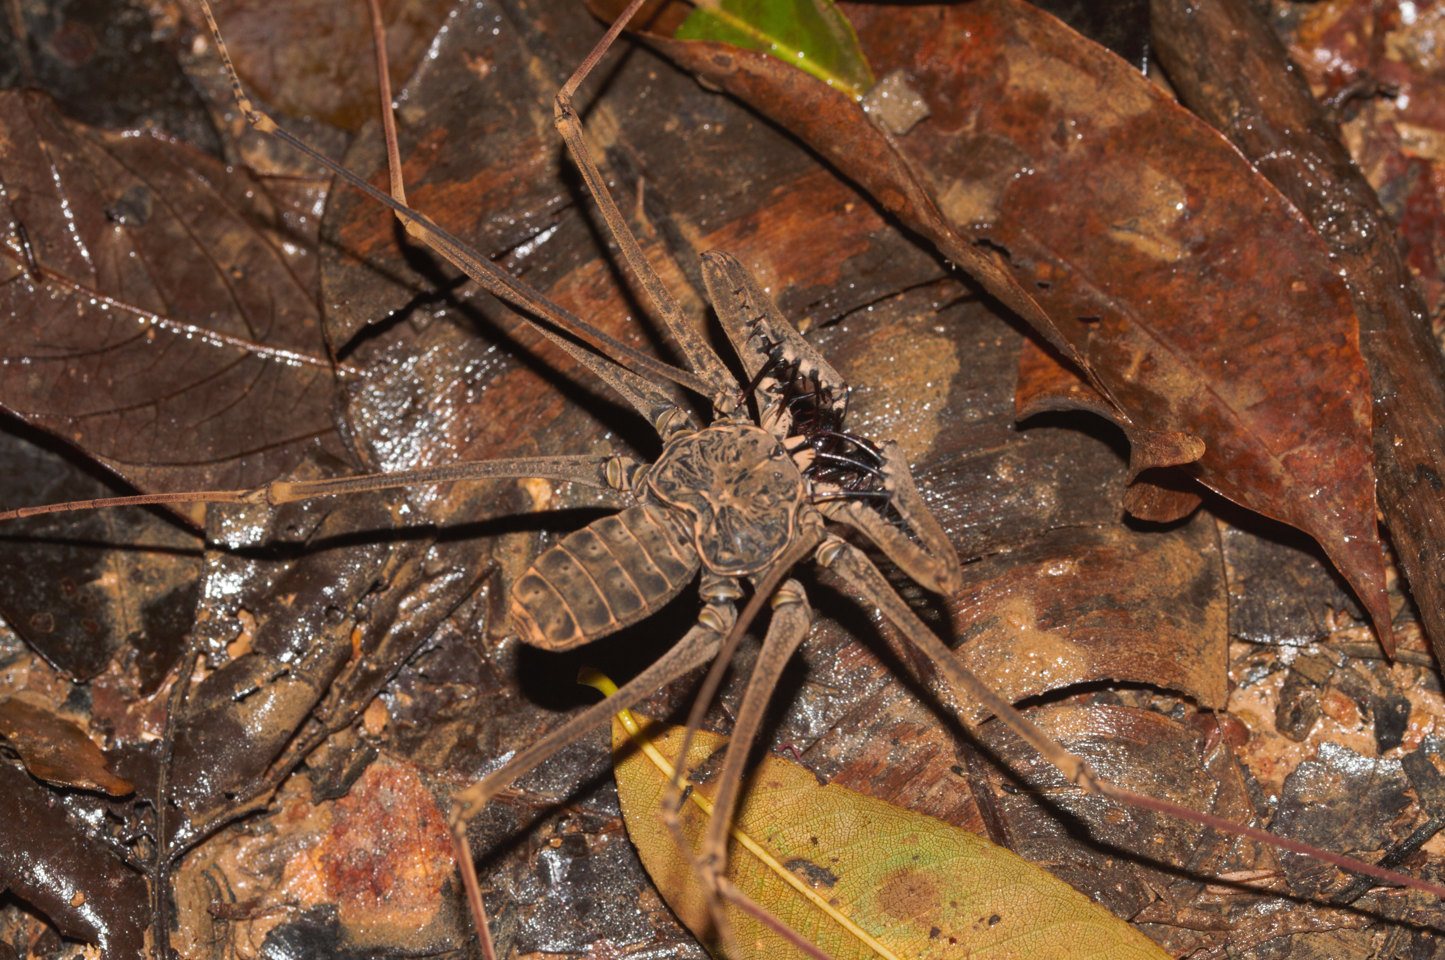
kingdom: Animalia
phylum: Arthropoda
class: Arachnida
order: Amblypygi
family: Phrynidae
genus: Heterophrynus
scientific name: Heterophrynus longicornis
